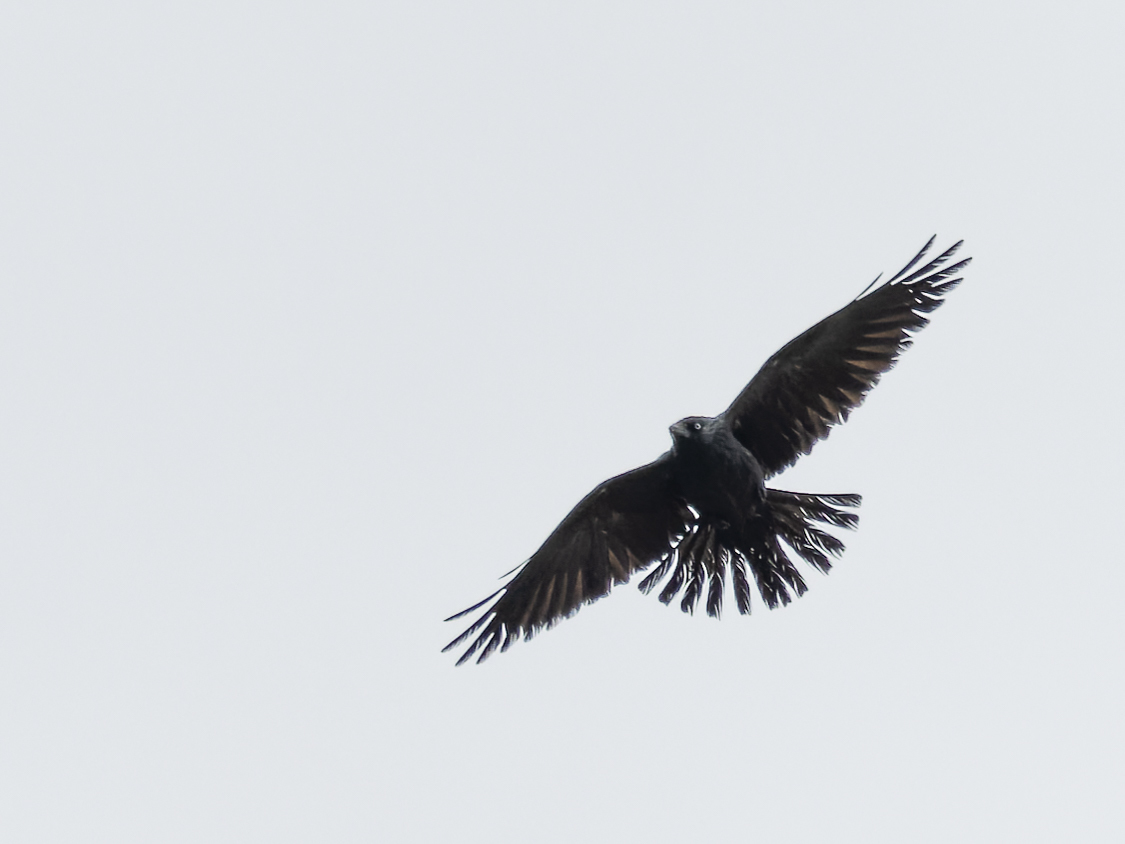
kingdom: Animalia
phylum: Chordata
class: Aves
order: Passeriformes
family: Corvidae
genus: Coloeus
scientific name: Coloeus monedula
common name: Western jackdaw
